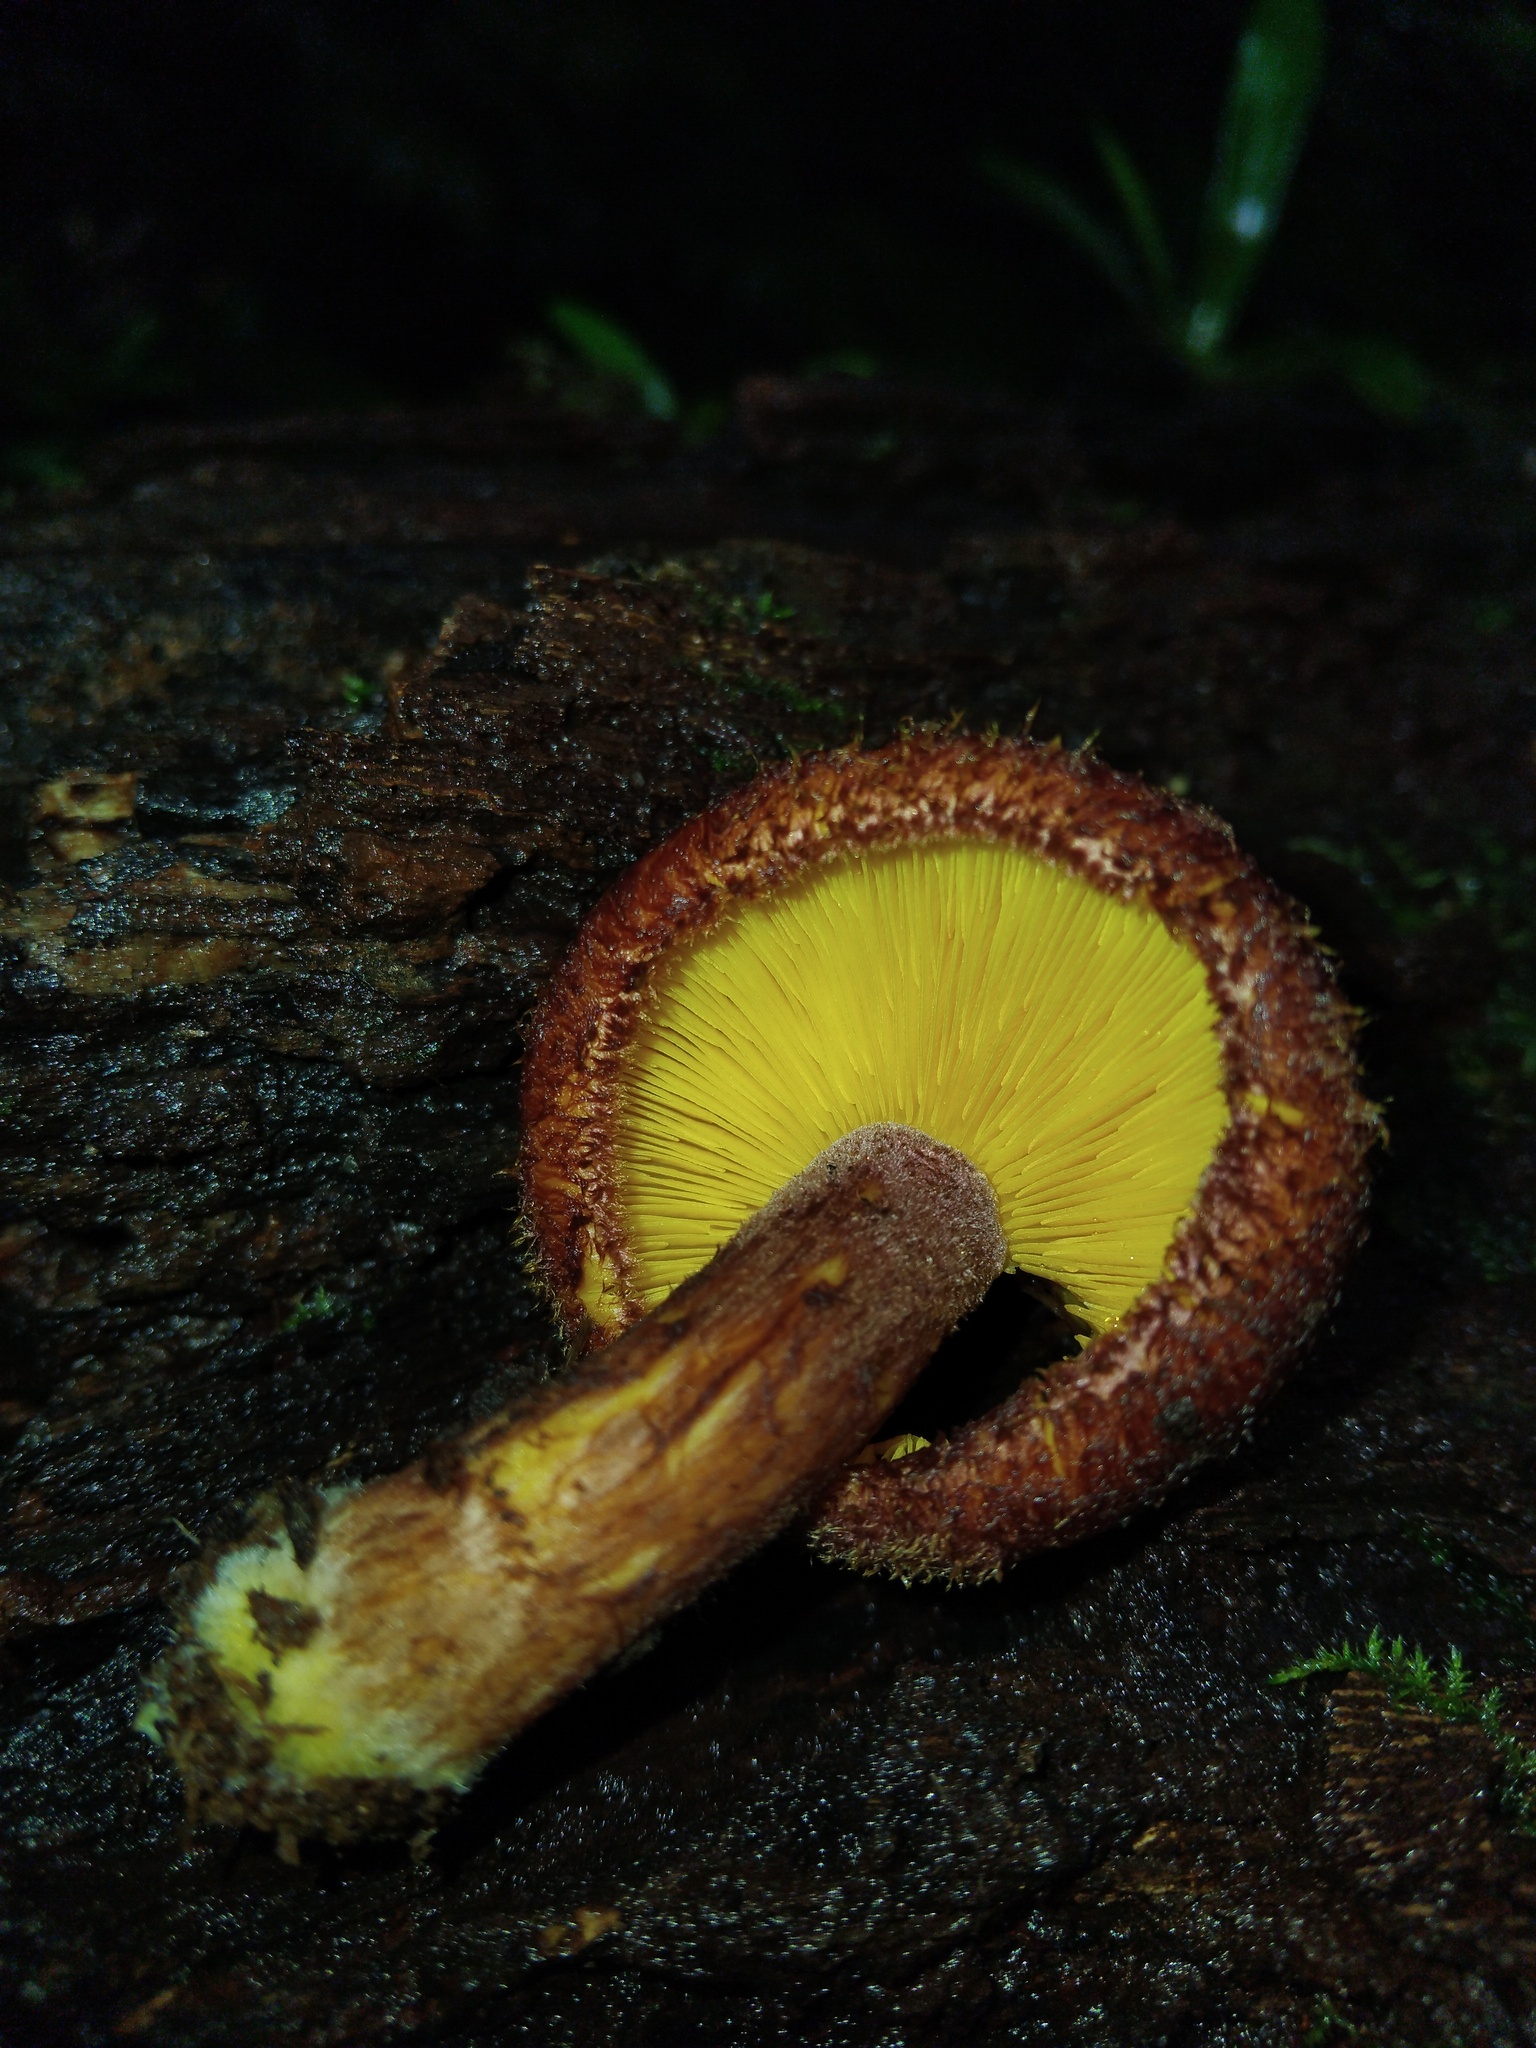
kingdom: Fungi
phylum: Basidiomycota
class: Agaricomycetes
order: Agaricales
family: Tricholomataceae
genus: Tricholomopsis
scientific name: Tricholomopsis scabra
